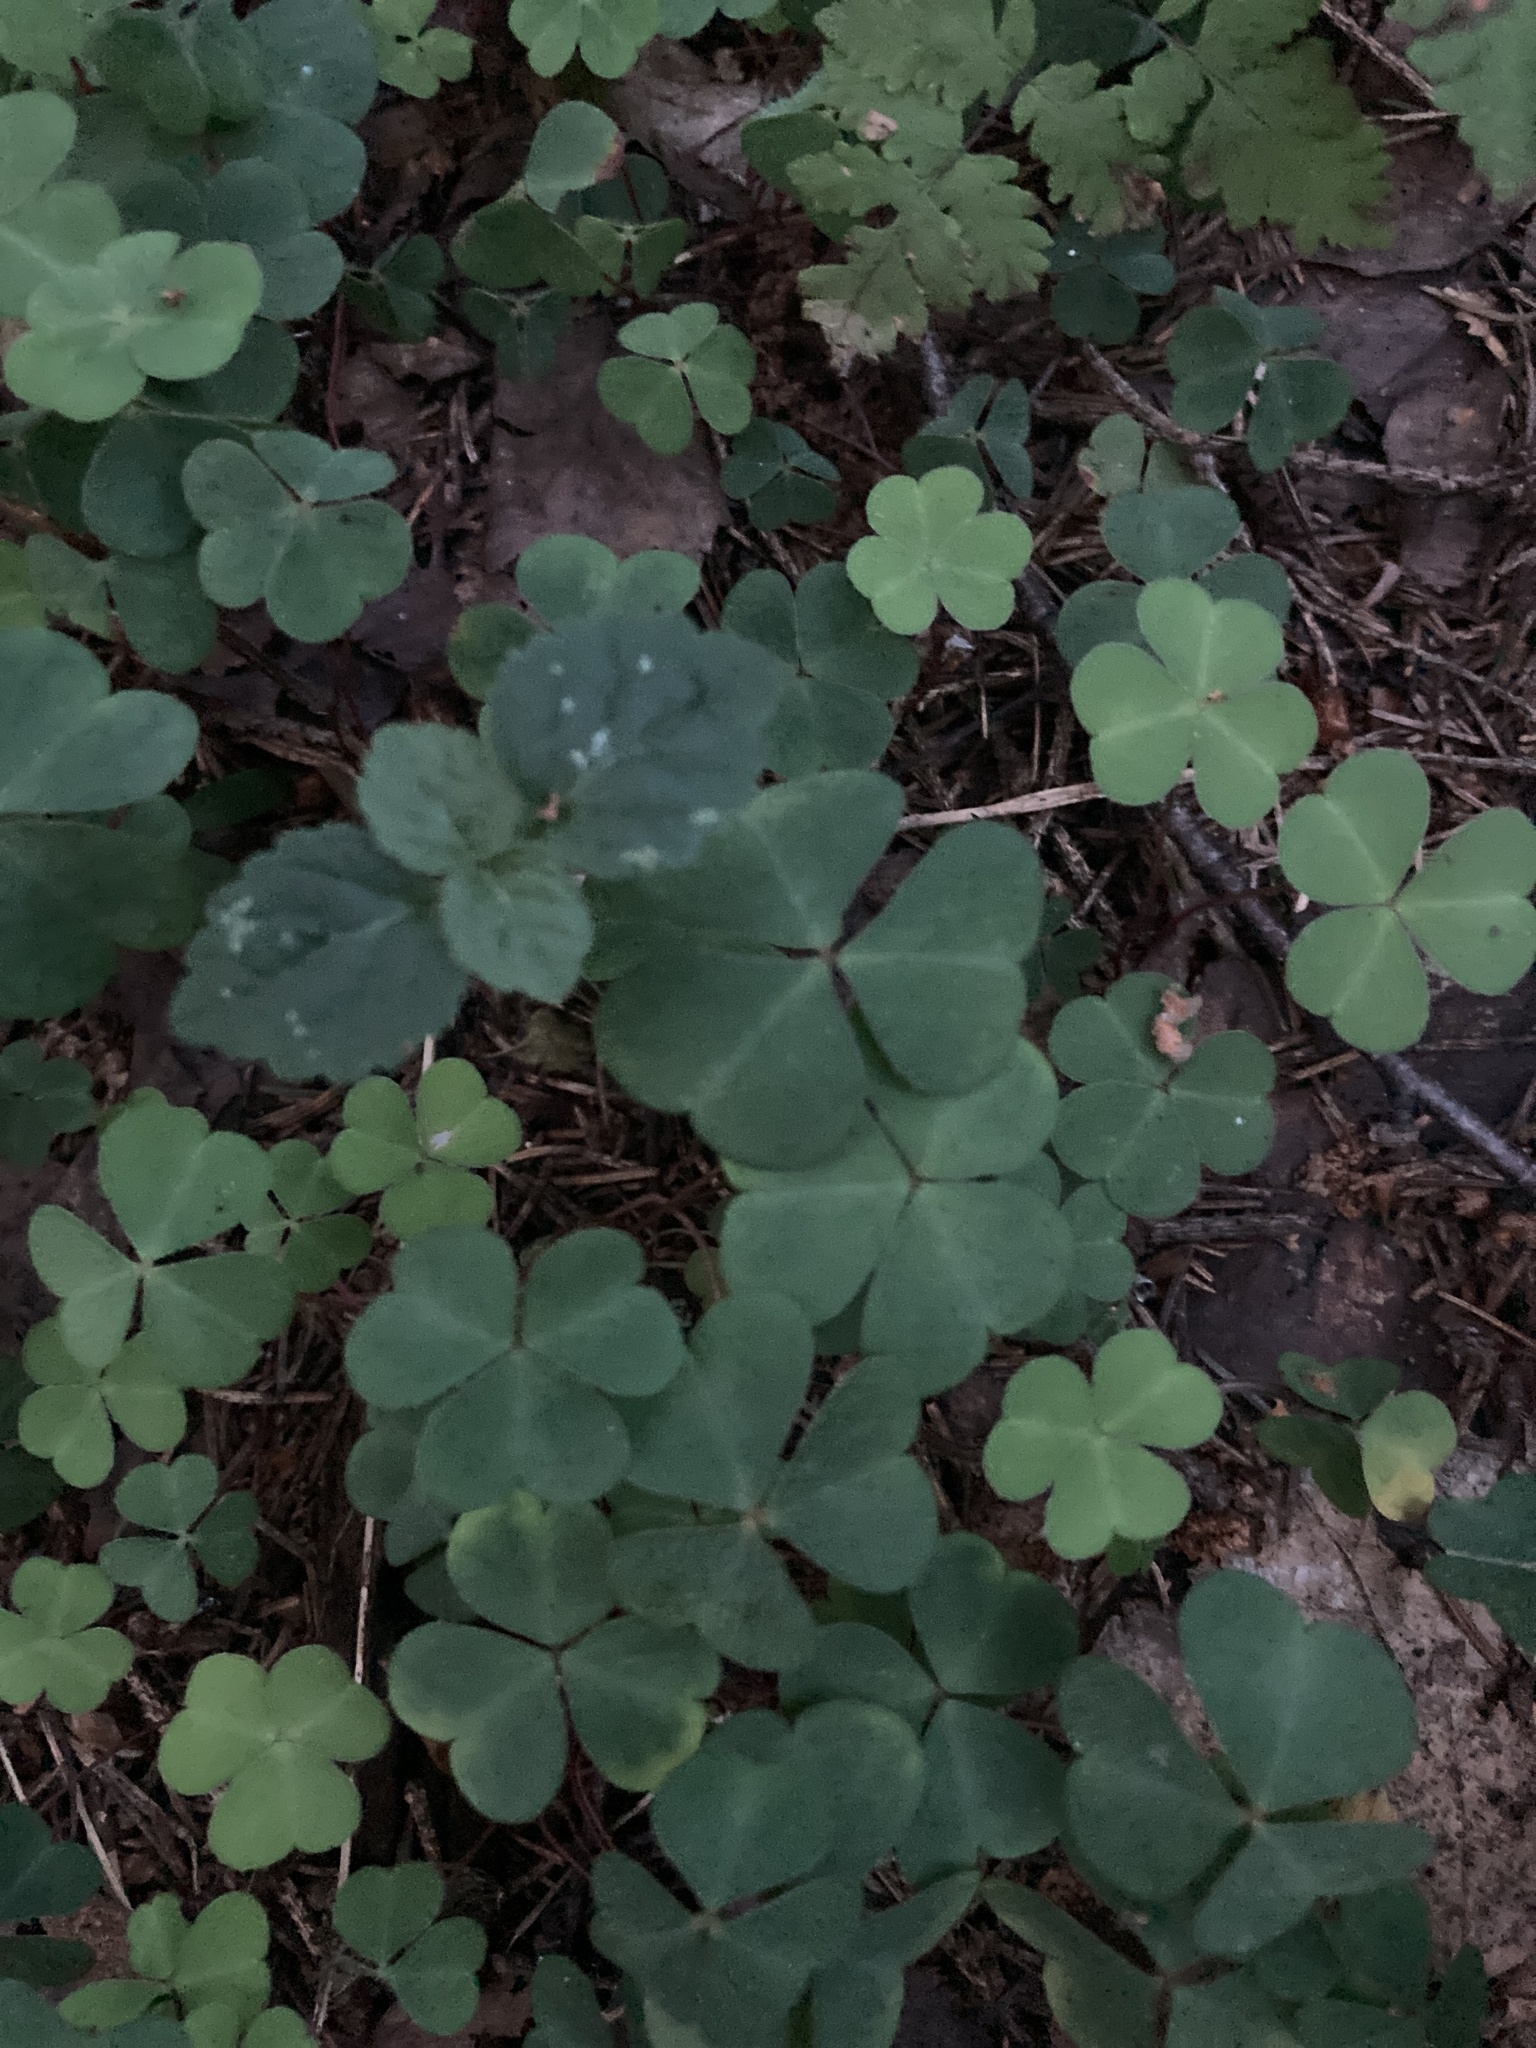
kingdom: Plantae
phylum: Tracheophyta
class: Magnoliopsida
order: Oxalidales
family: Oxalidaceae
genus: Oxalis
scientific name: Oxalis acetosella
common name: Wood-sorrel
